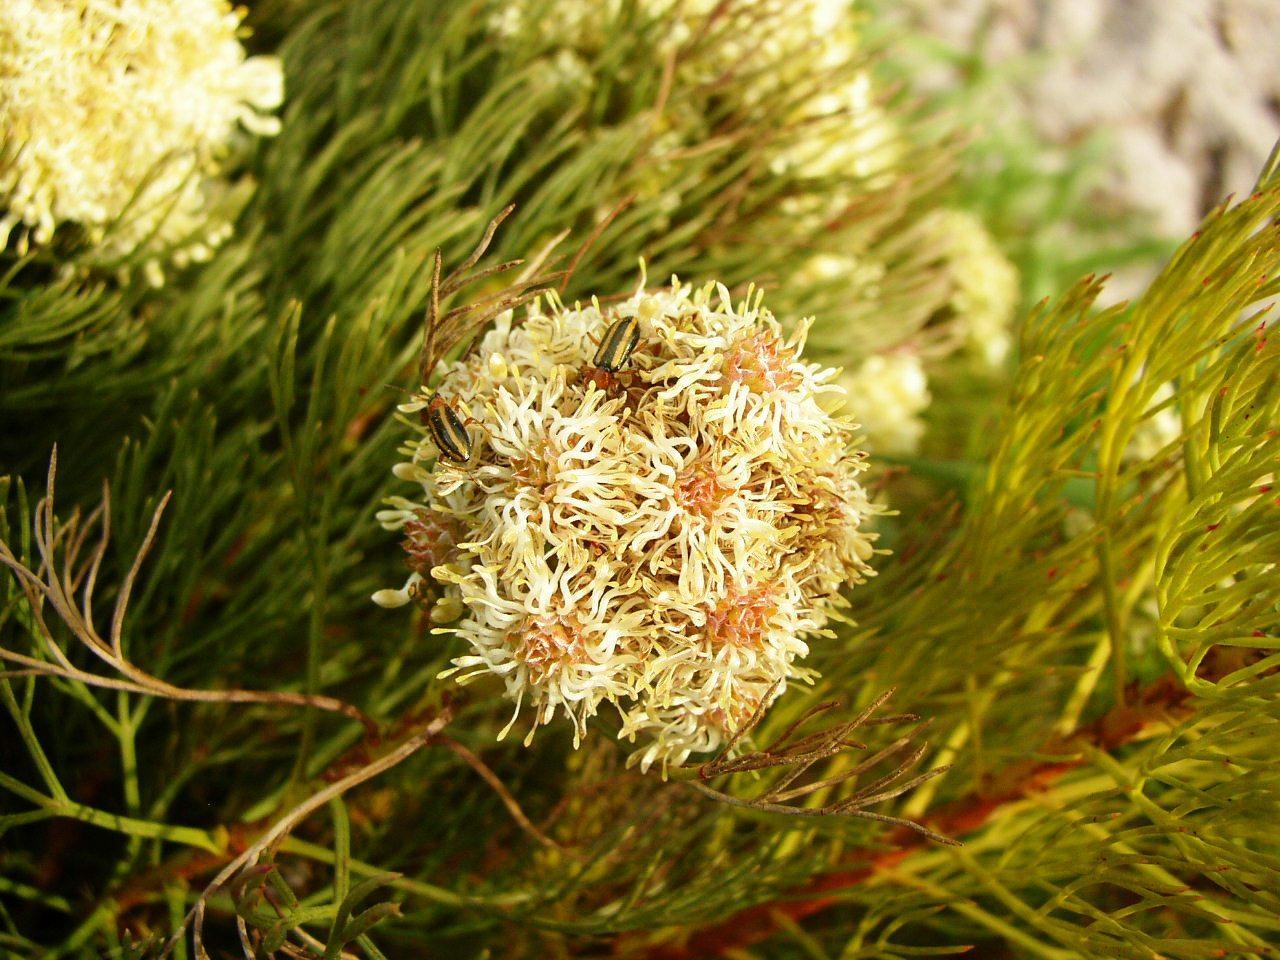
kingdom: Plantae
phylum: Tracheophyta
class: Magnoliopsida
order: Proteales
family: Proteaceae
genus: Serruria
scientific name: Serruria glomerata
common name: Cluster spiderhead
